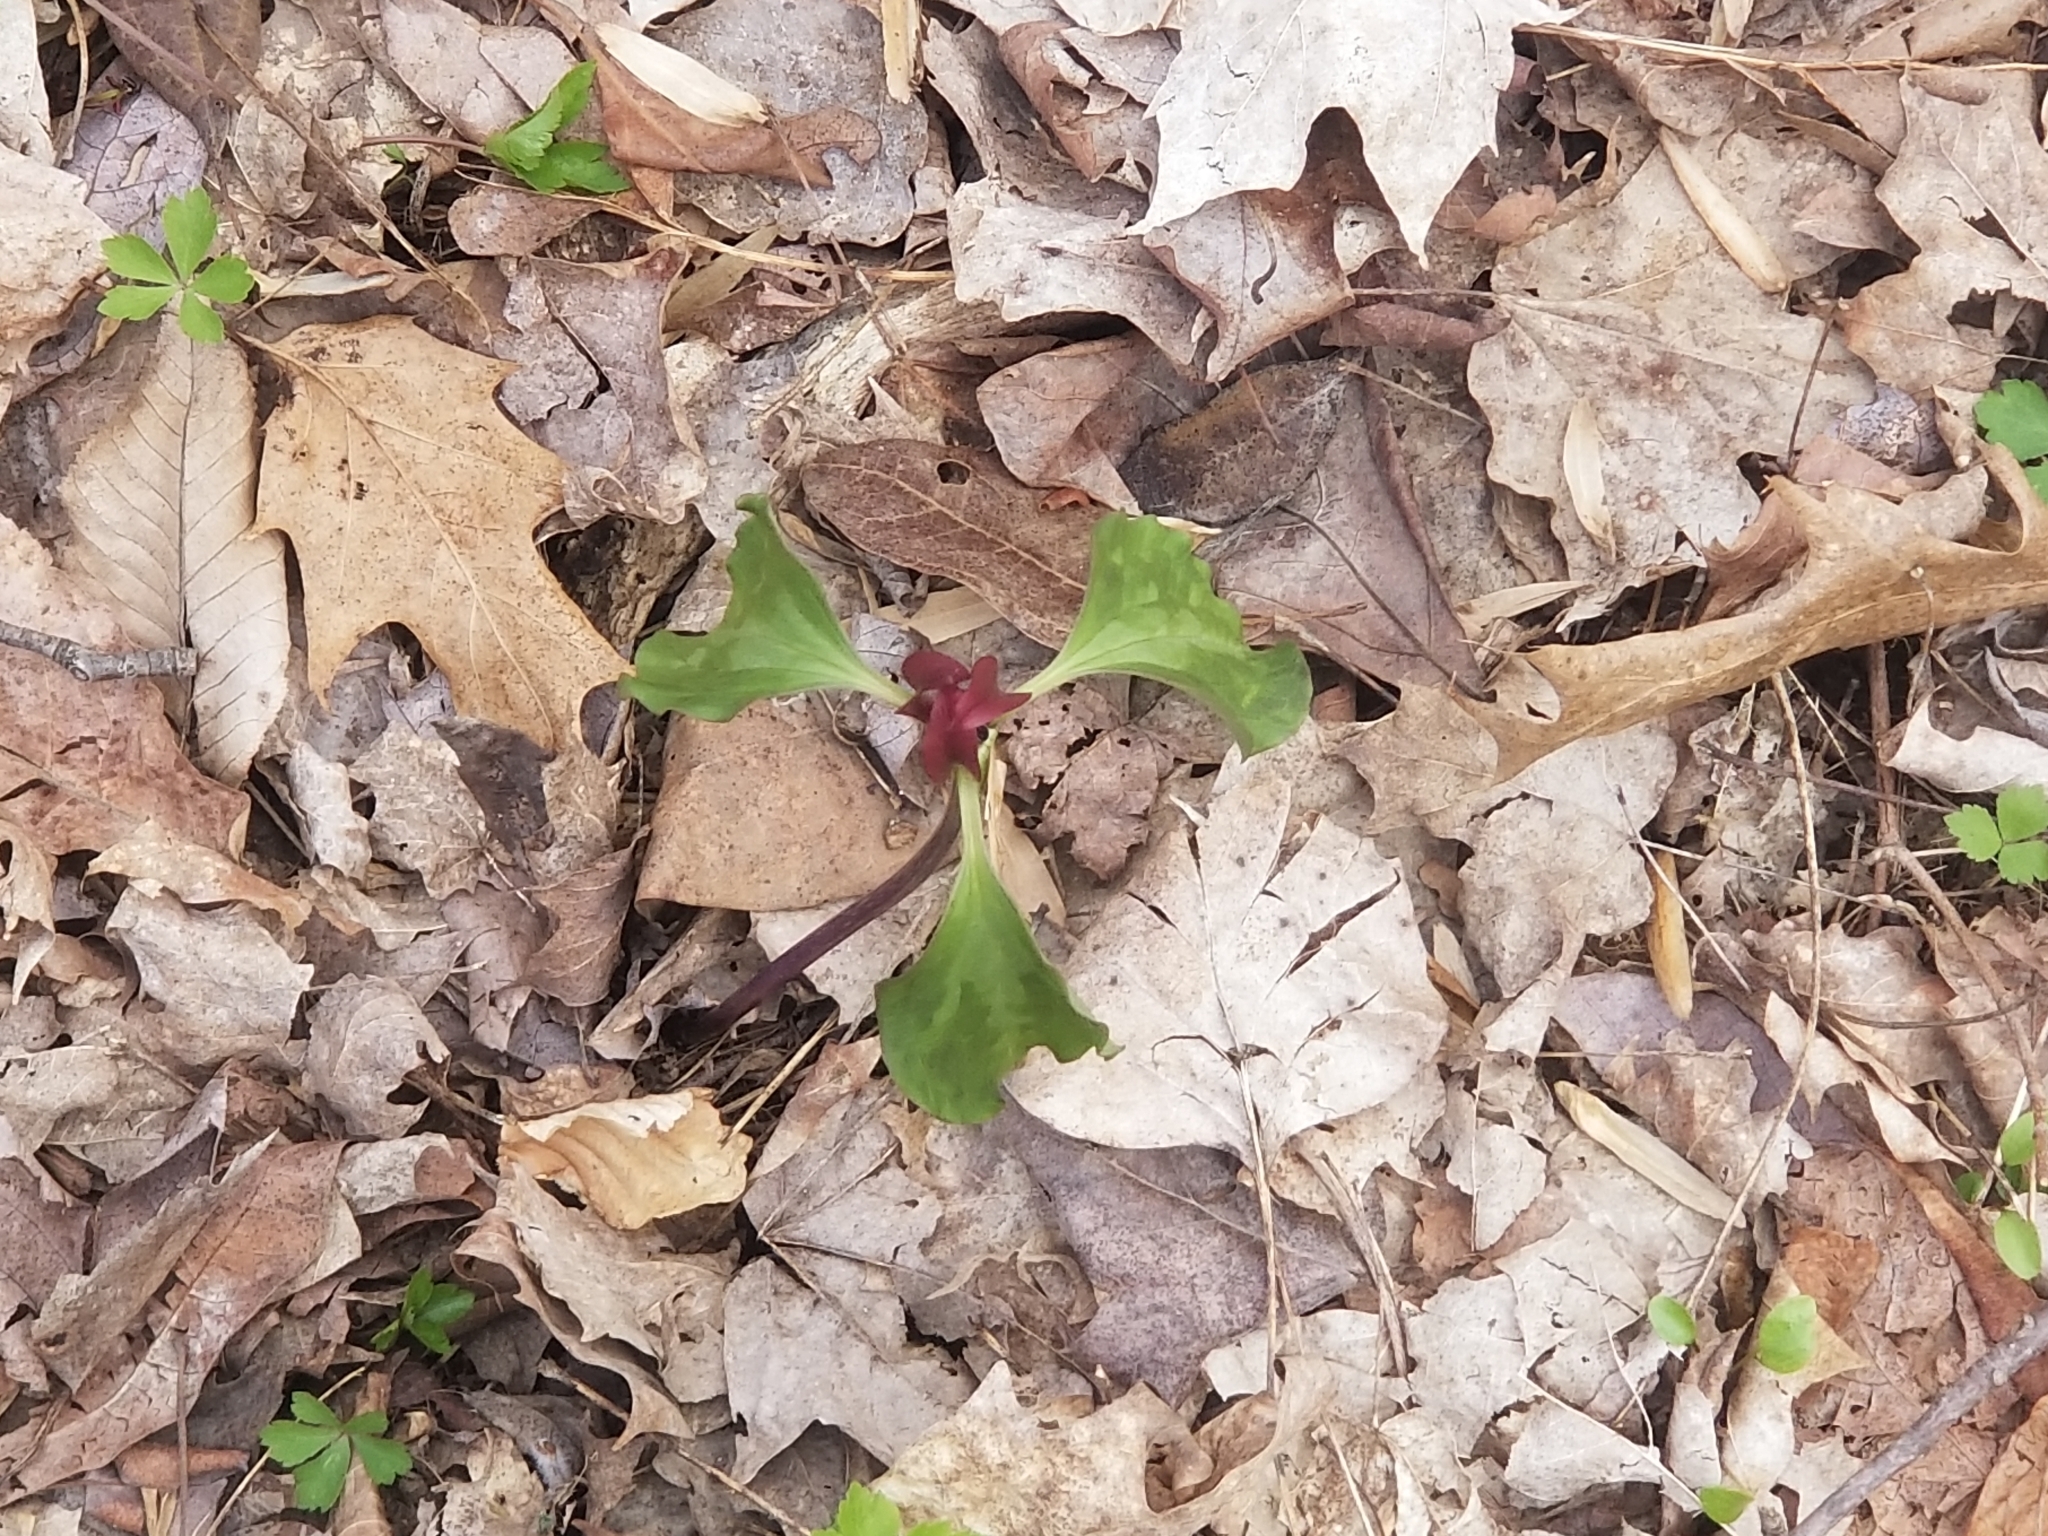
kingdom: Plantae
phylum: Tracheophyta
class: Liliopsida
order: Liliales
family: Melanthiaceae
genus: Trillium
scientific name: Trillium recurvatum
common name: Bloody butcher
